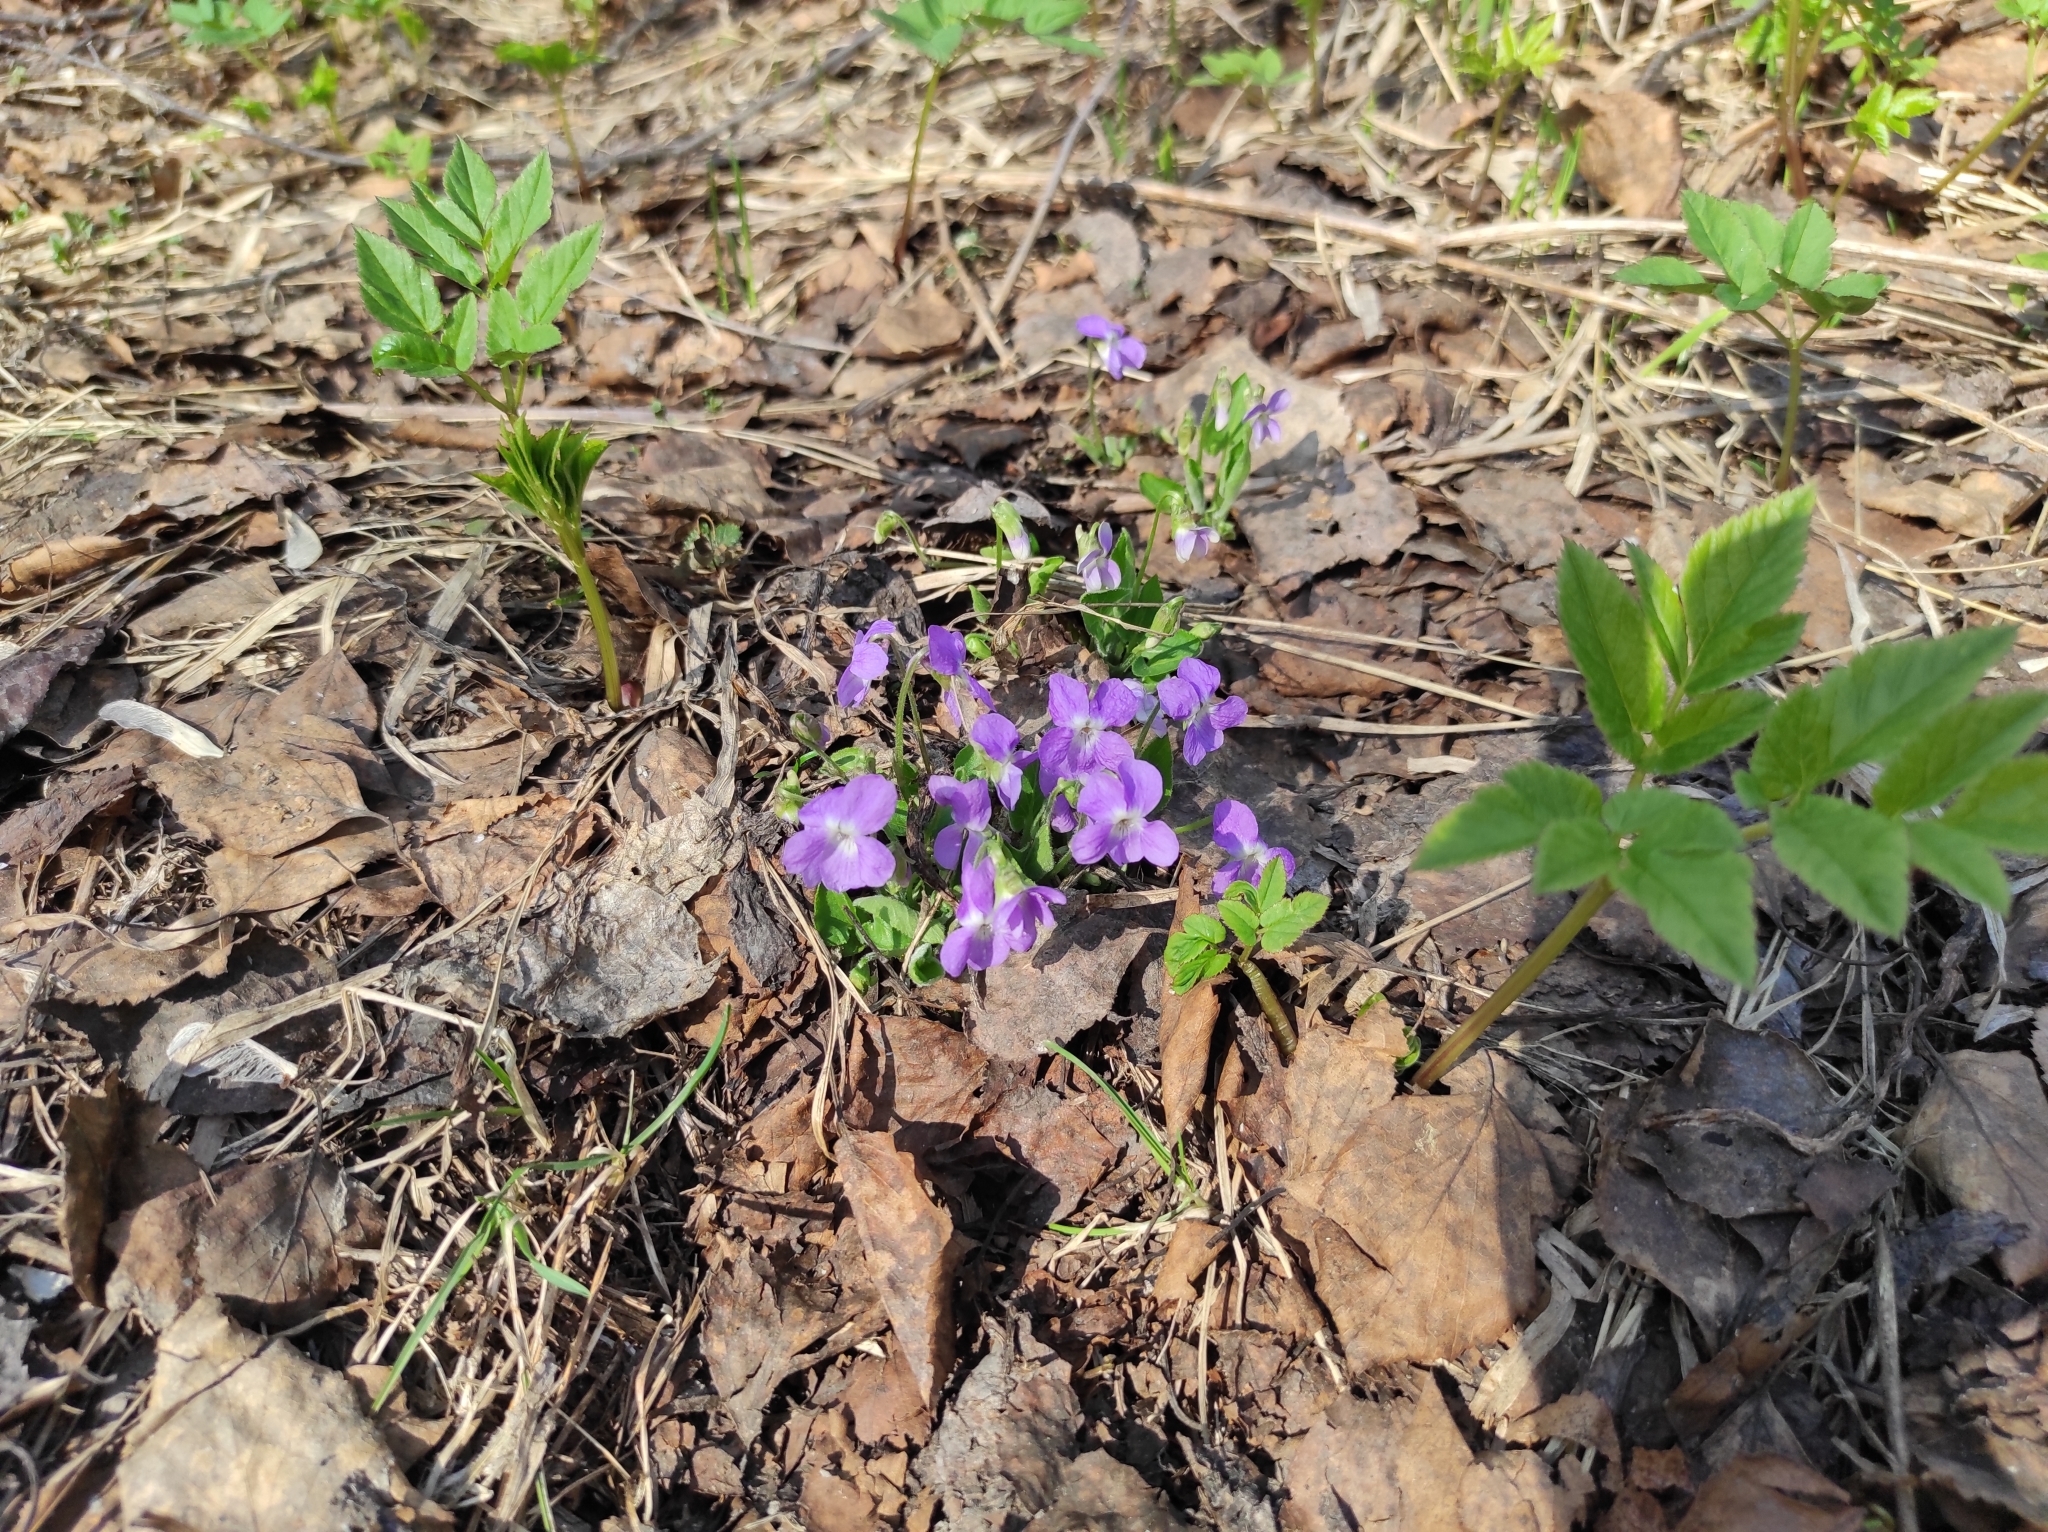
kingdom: Plantae
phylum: Tracheophyta
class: Magnoliopsida
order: Malpighiales
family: Violaceae
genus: Viola
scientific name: Viola hirta
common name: Hairy violet
